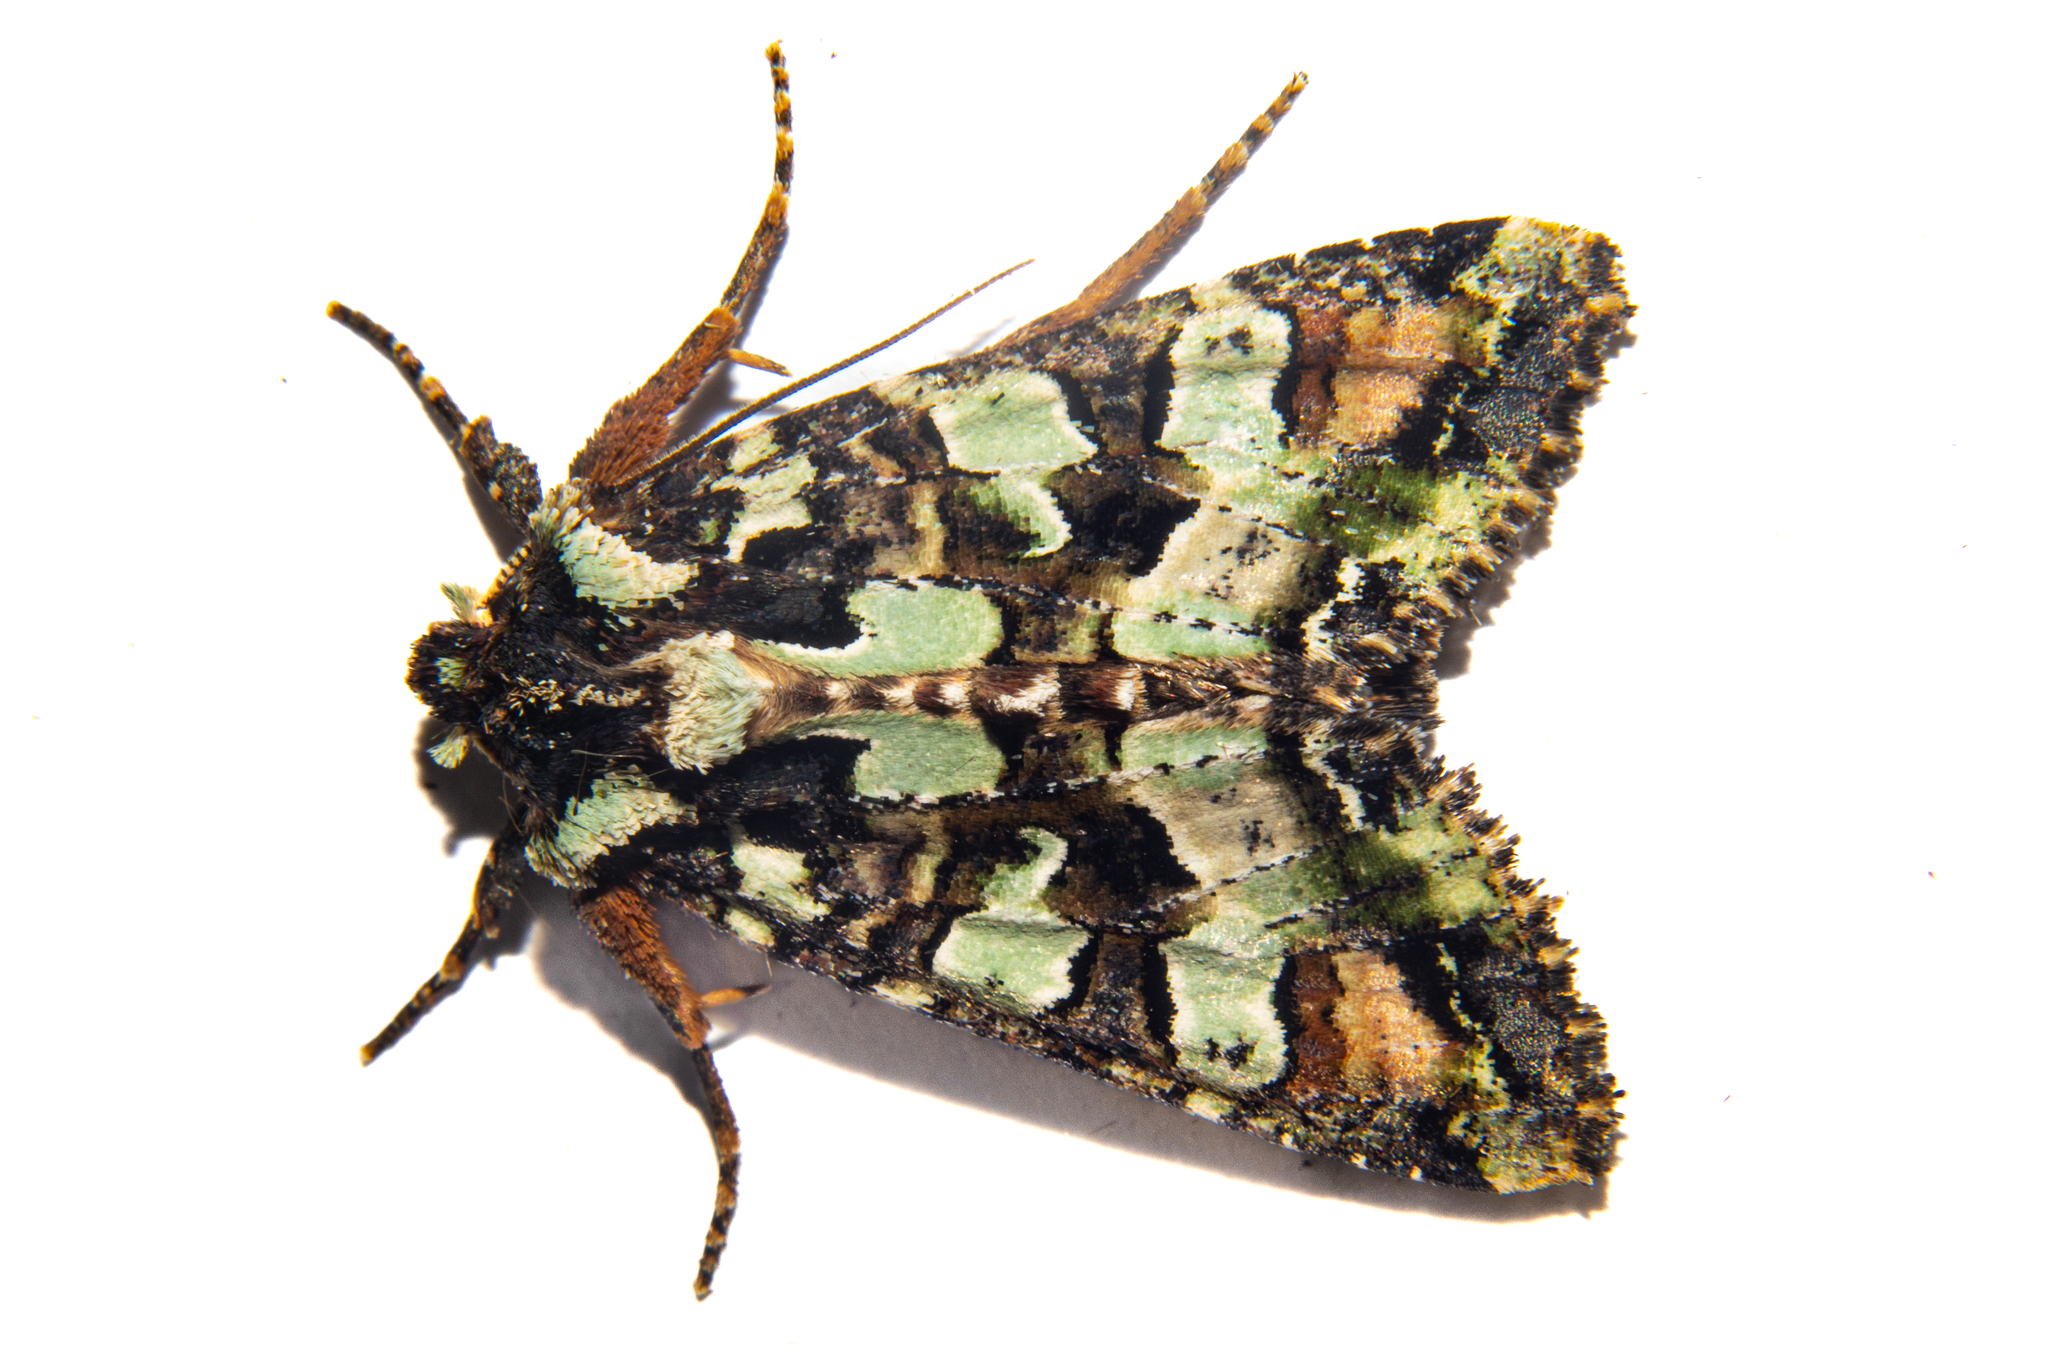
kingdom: Animalia
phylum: Arthropoda
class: Insecta
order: Lepidoptera
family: Noctuidae
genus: Meterana
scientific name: Meterana pauca
